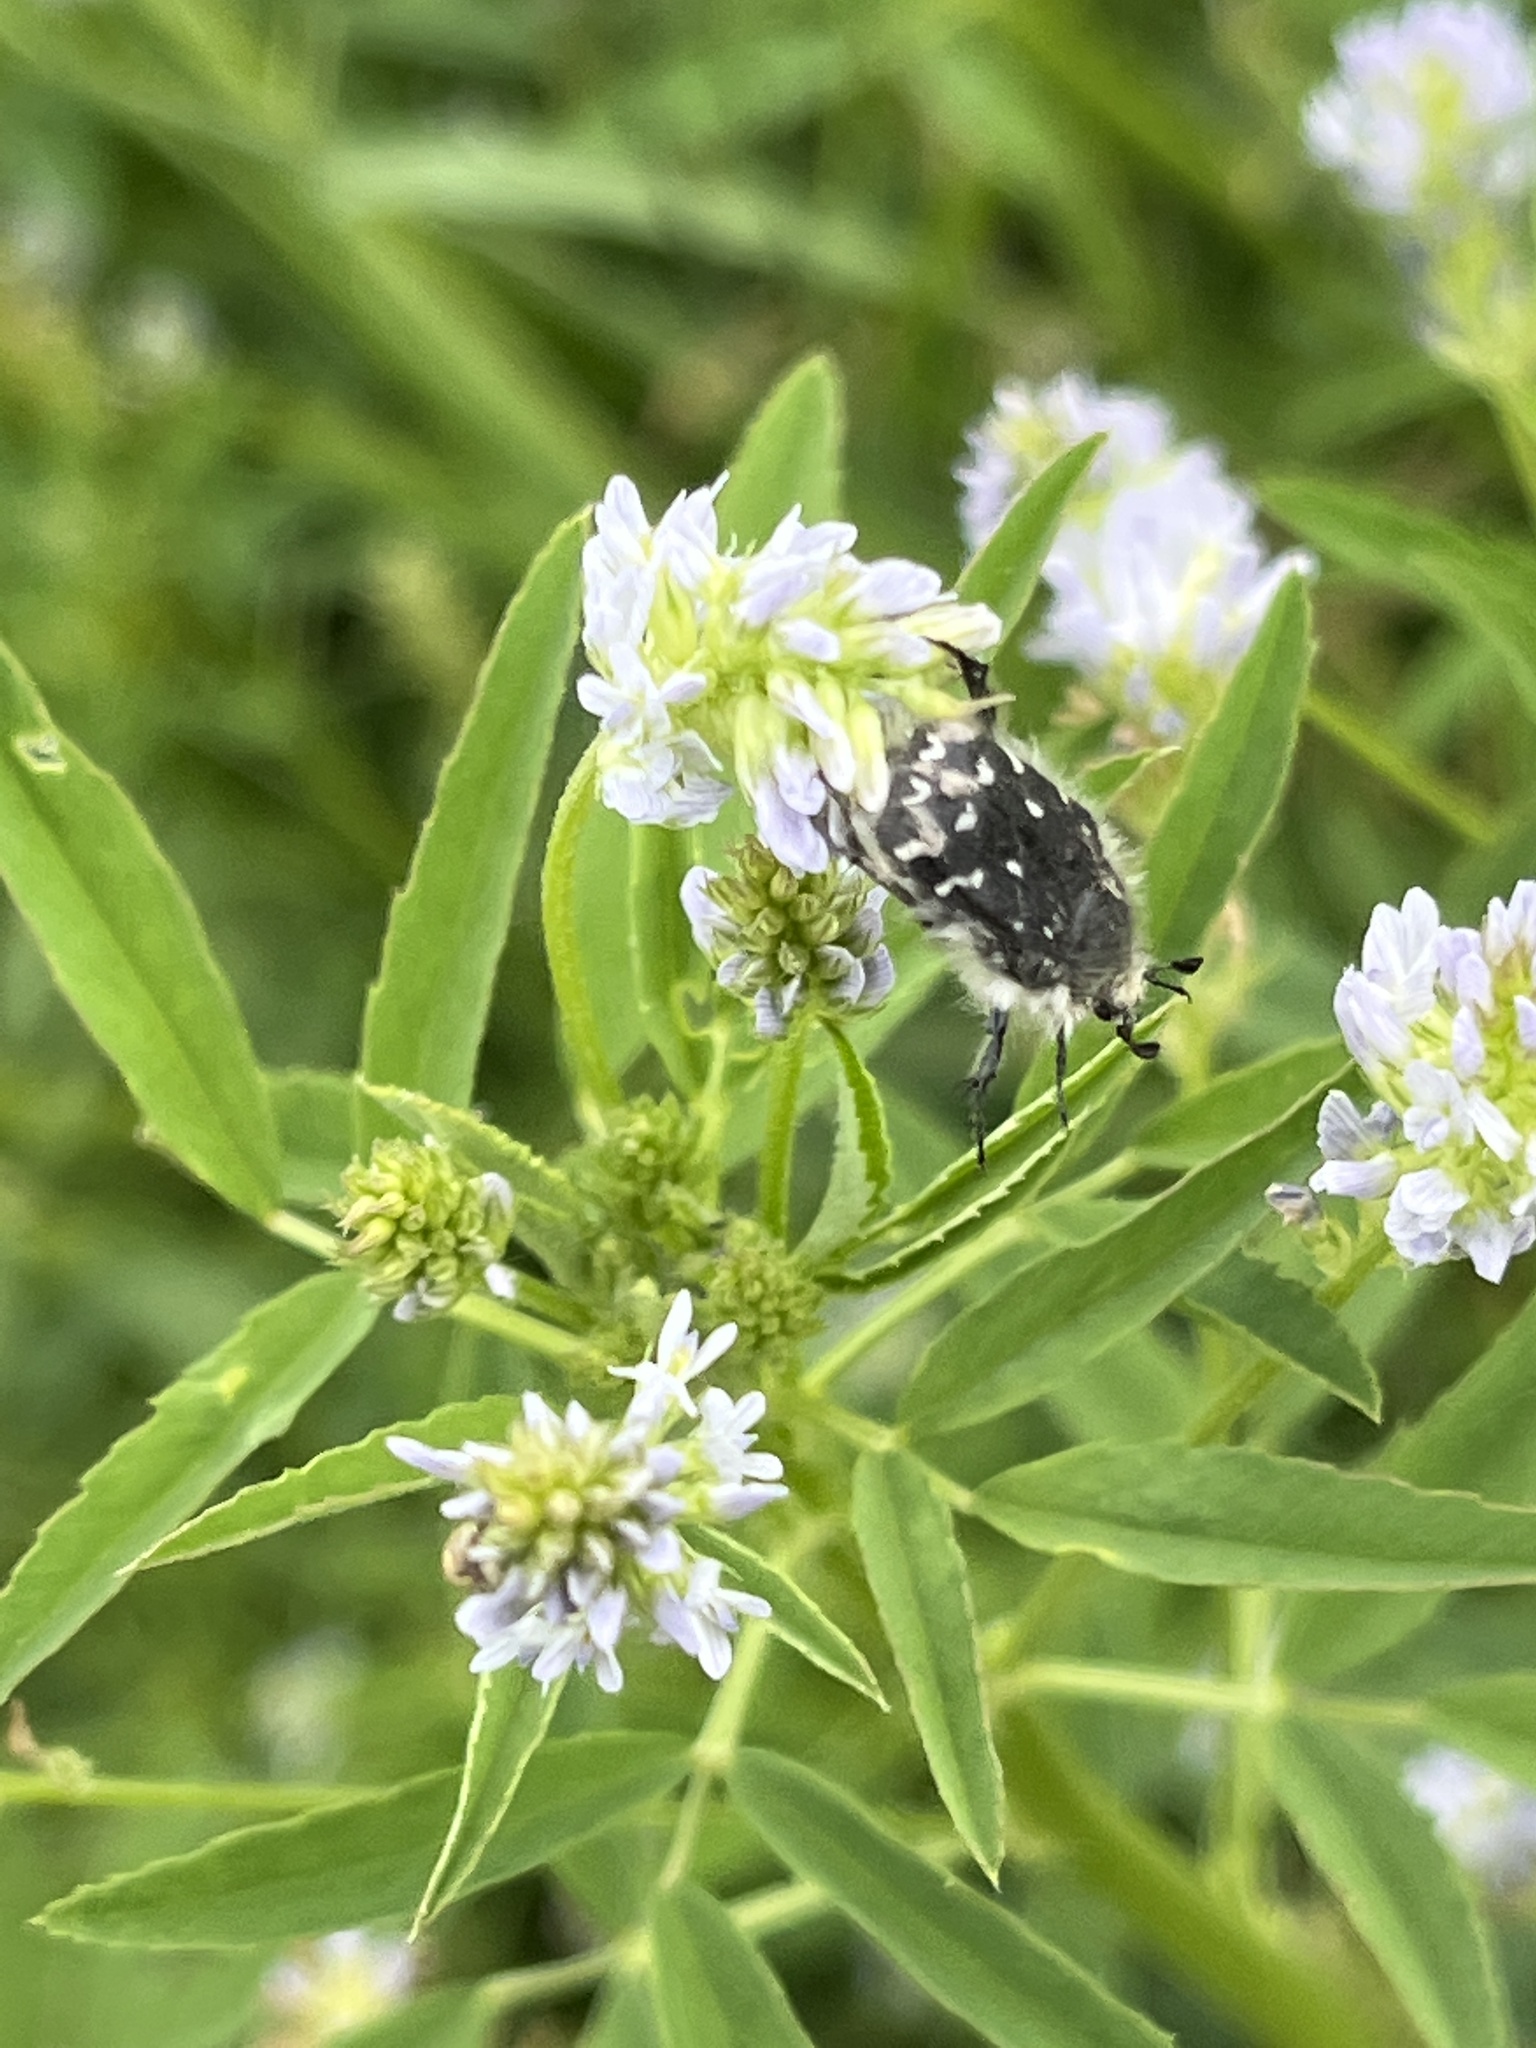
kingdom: Animalia
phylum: Arthropoda
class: Insecta
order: Coleoptera
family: Scarabaeidae
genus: Tropinota
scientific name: Tropinota hirta
